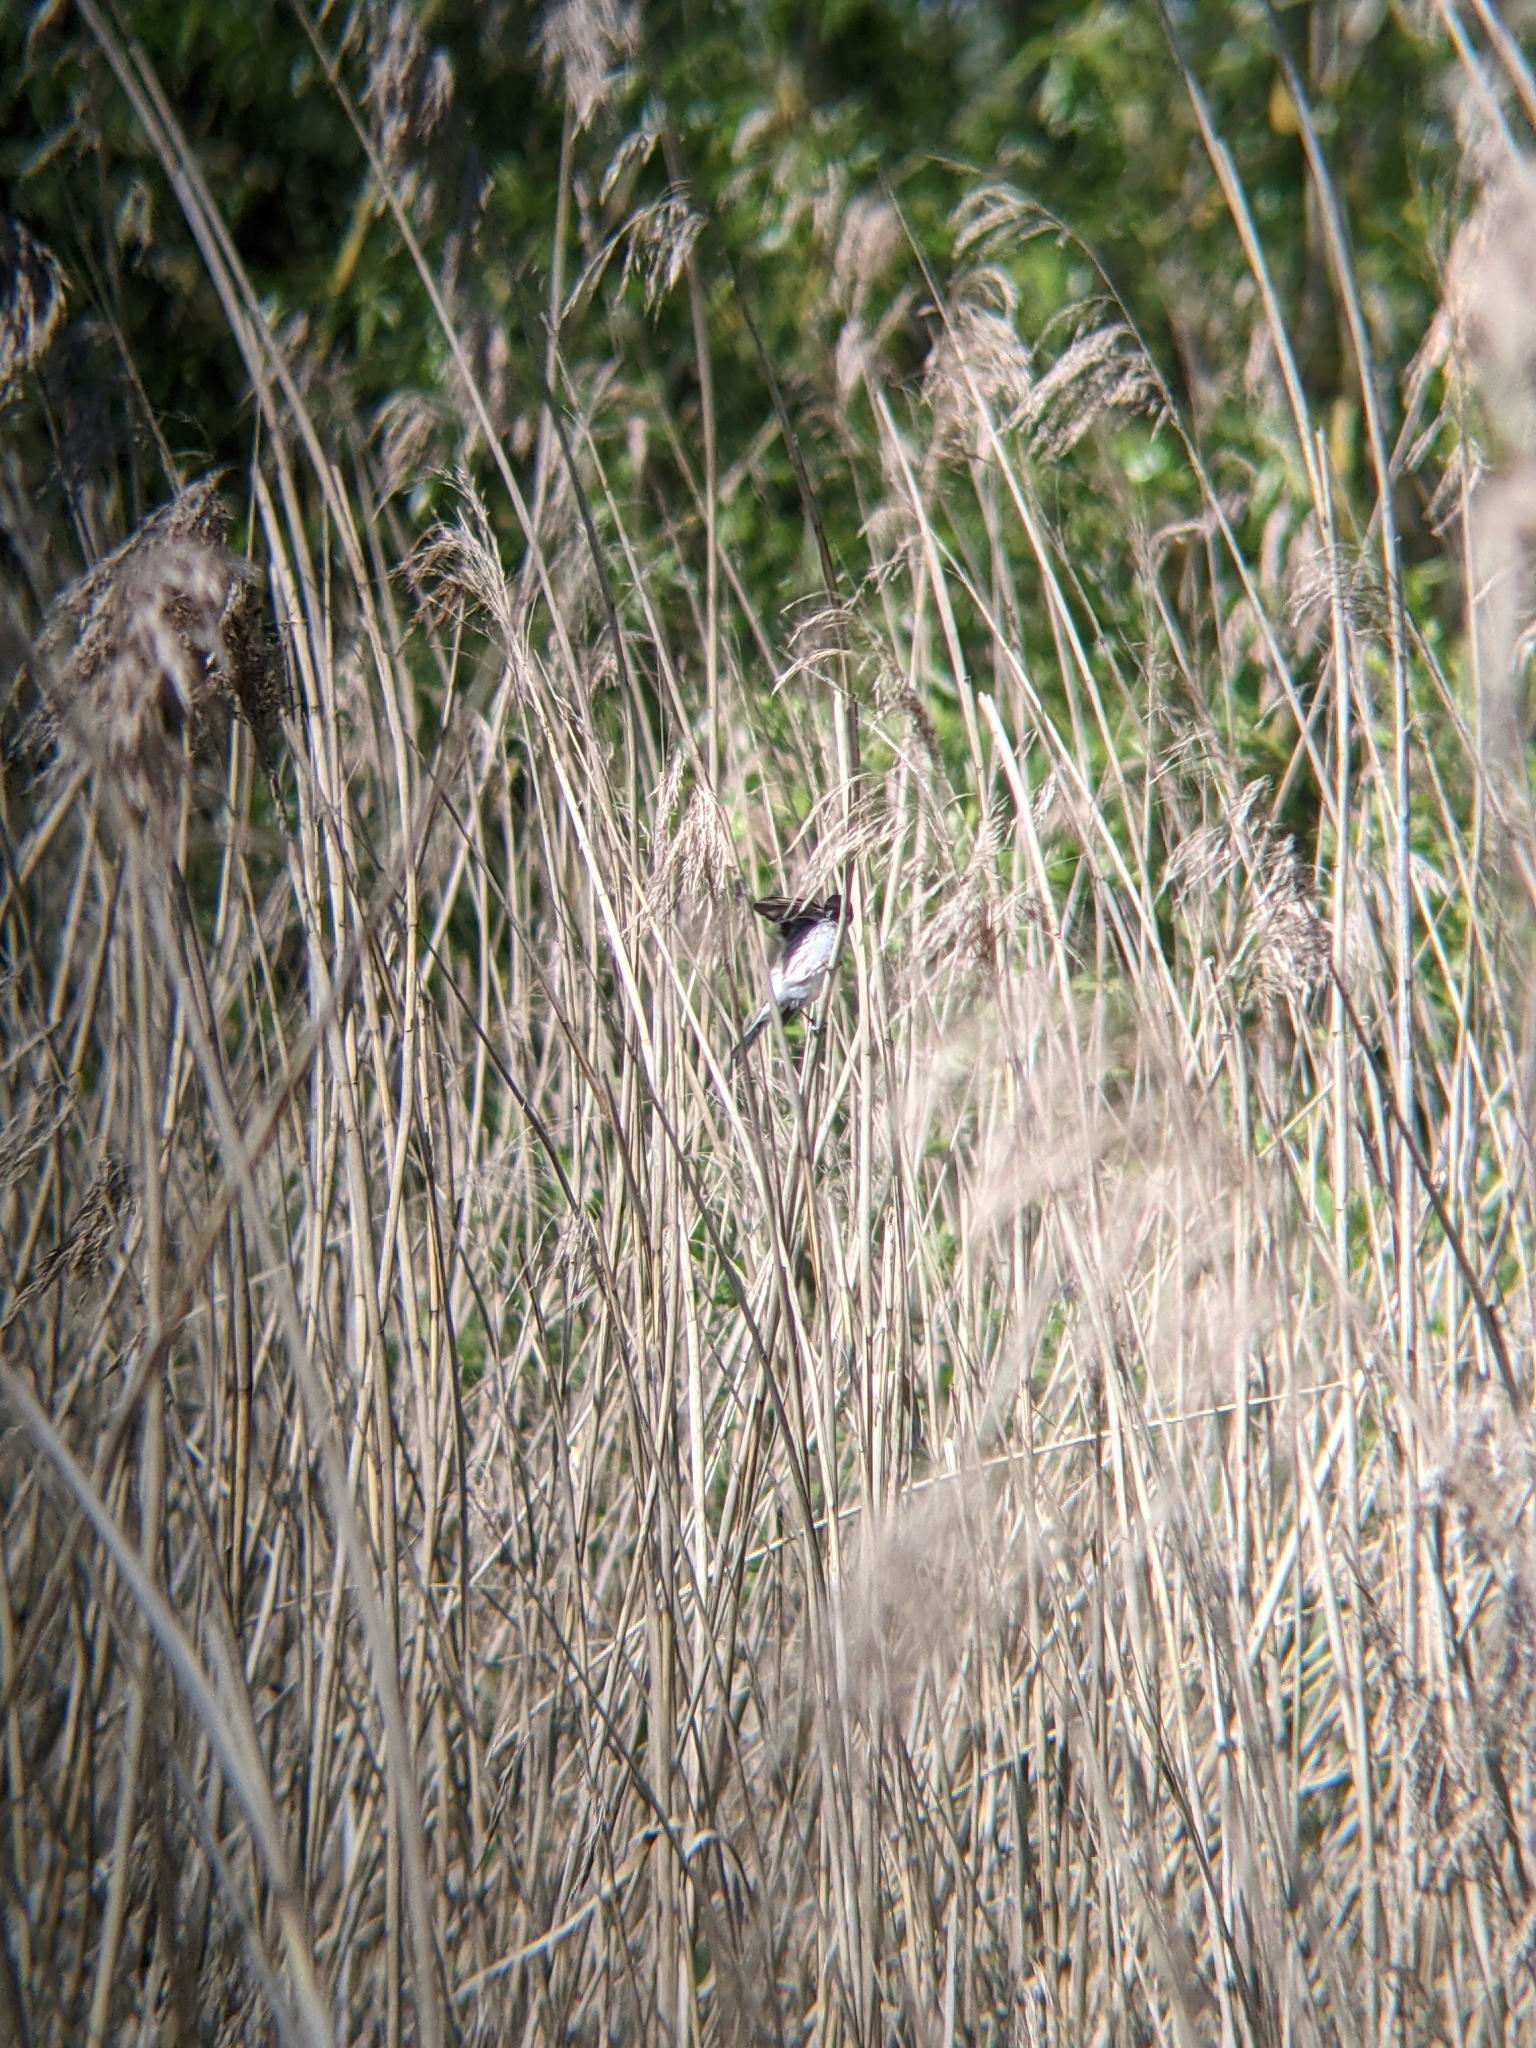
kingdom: Animalia
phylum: Chordata
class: Aves
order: Passeriformes
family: Emberizidae
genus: Emberiza
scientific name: Emberiza schoeniclus
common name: Reed bunting
